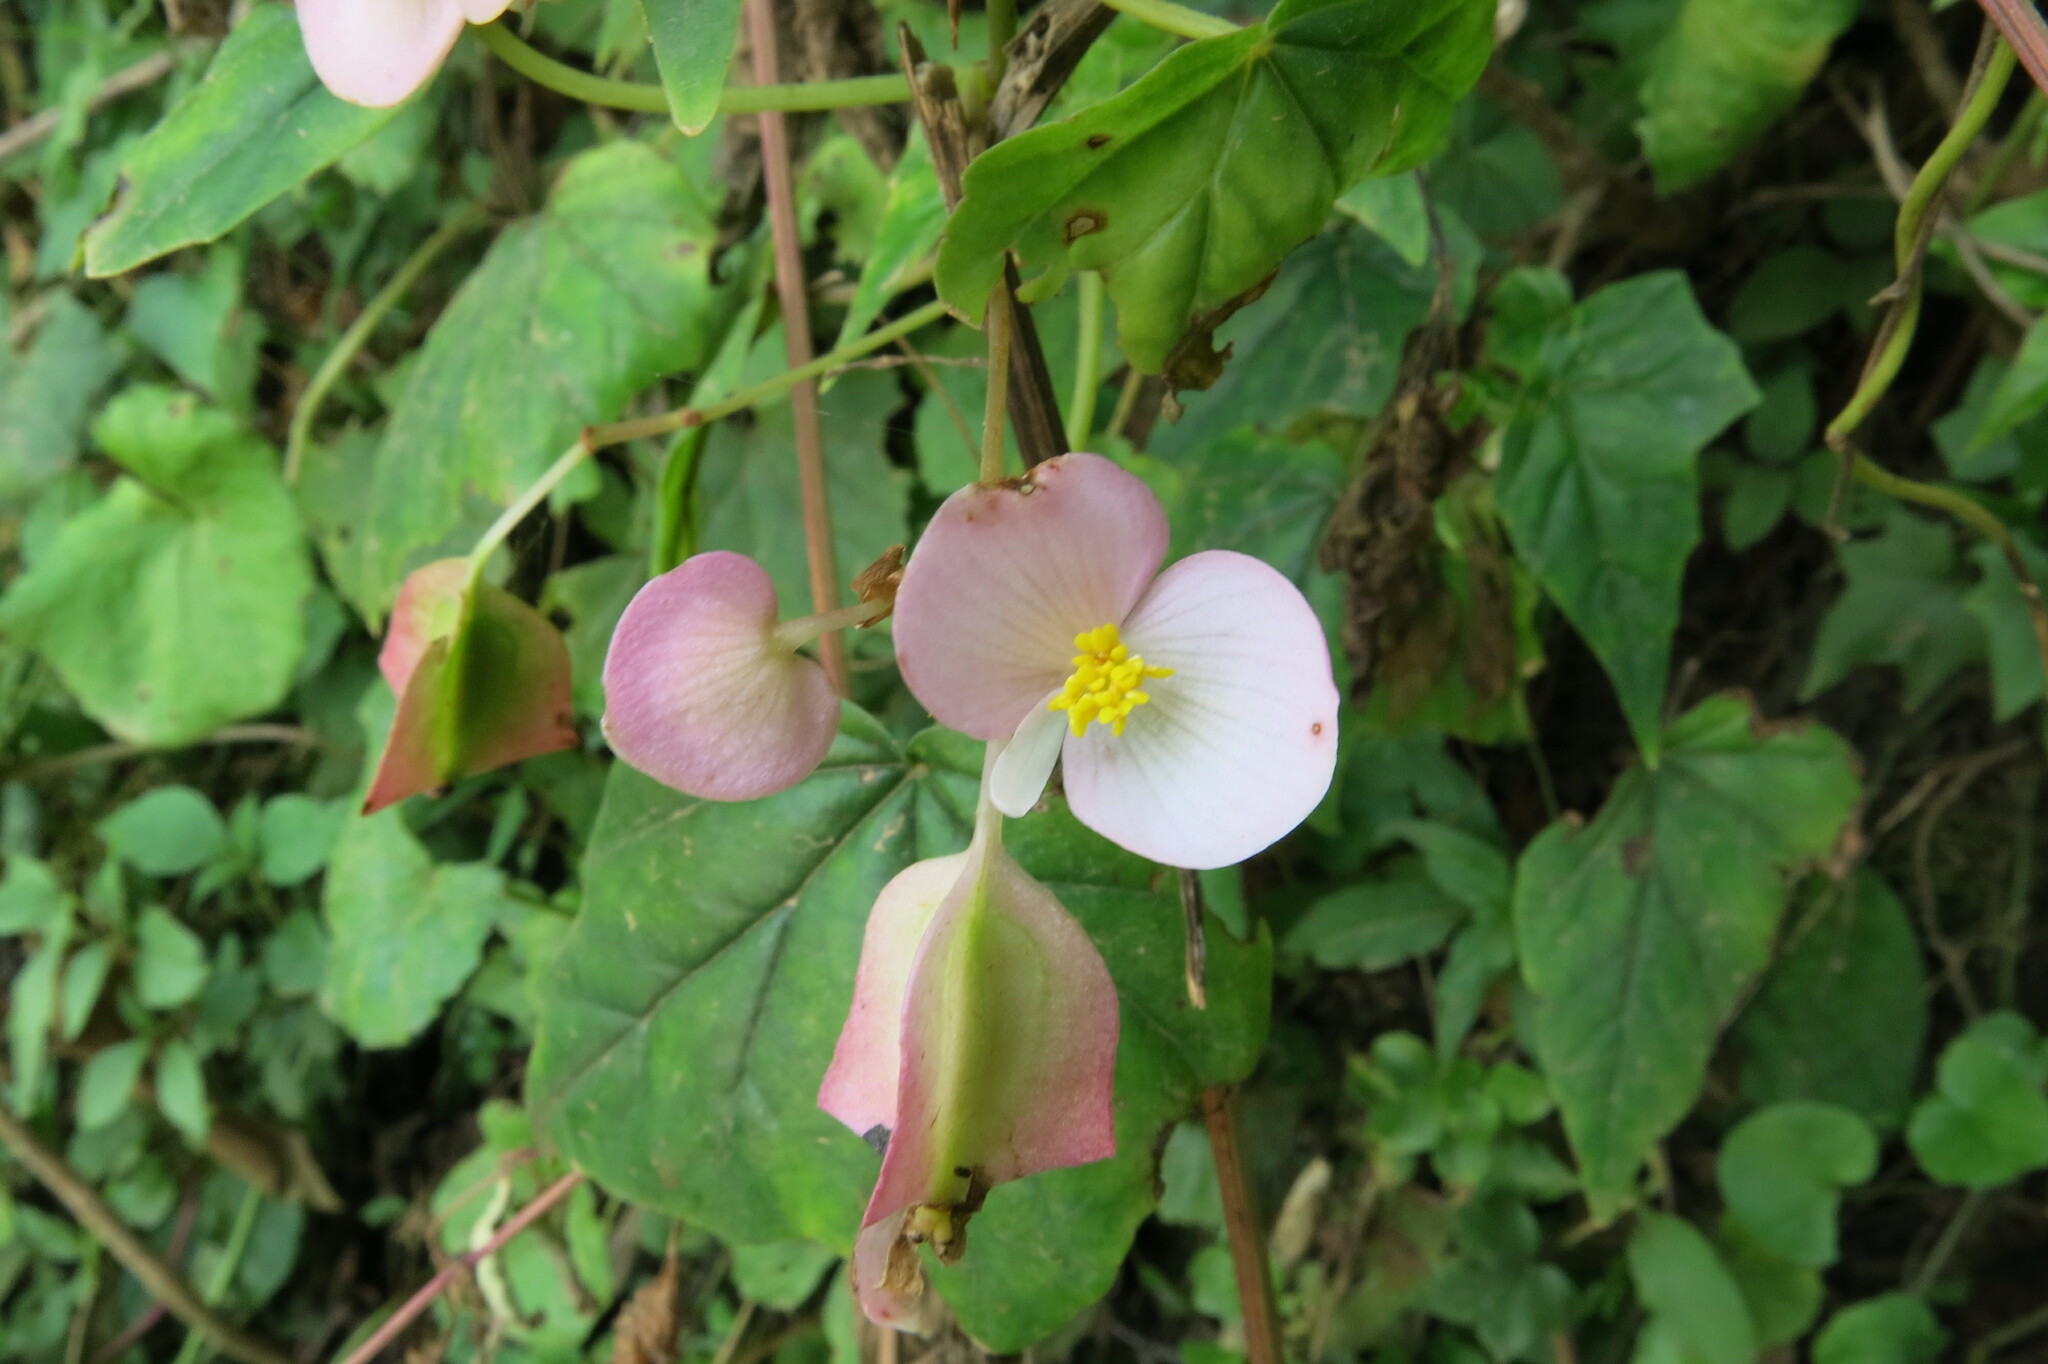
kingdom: Plantae
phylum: Tracheophyta
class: Magnoliopsida
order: Cucurbitales
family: Begoniaceae
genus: Begonia
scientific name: Begonia dregei
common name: Grape-leaf begonia
